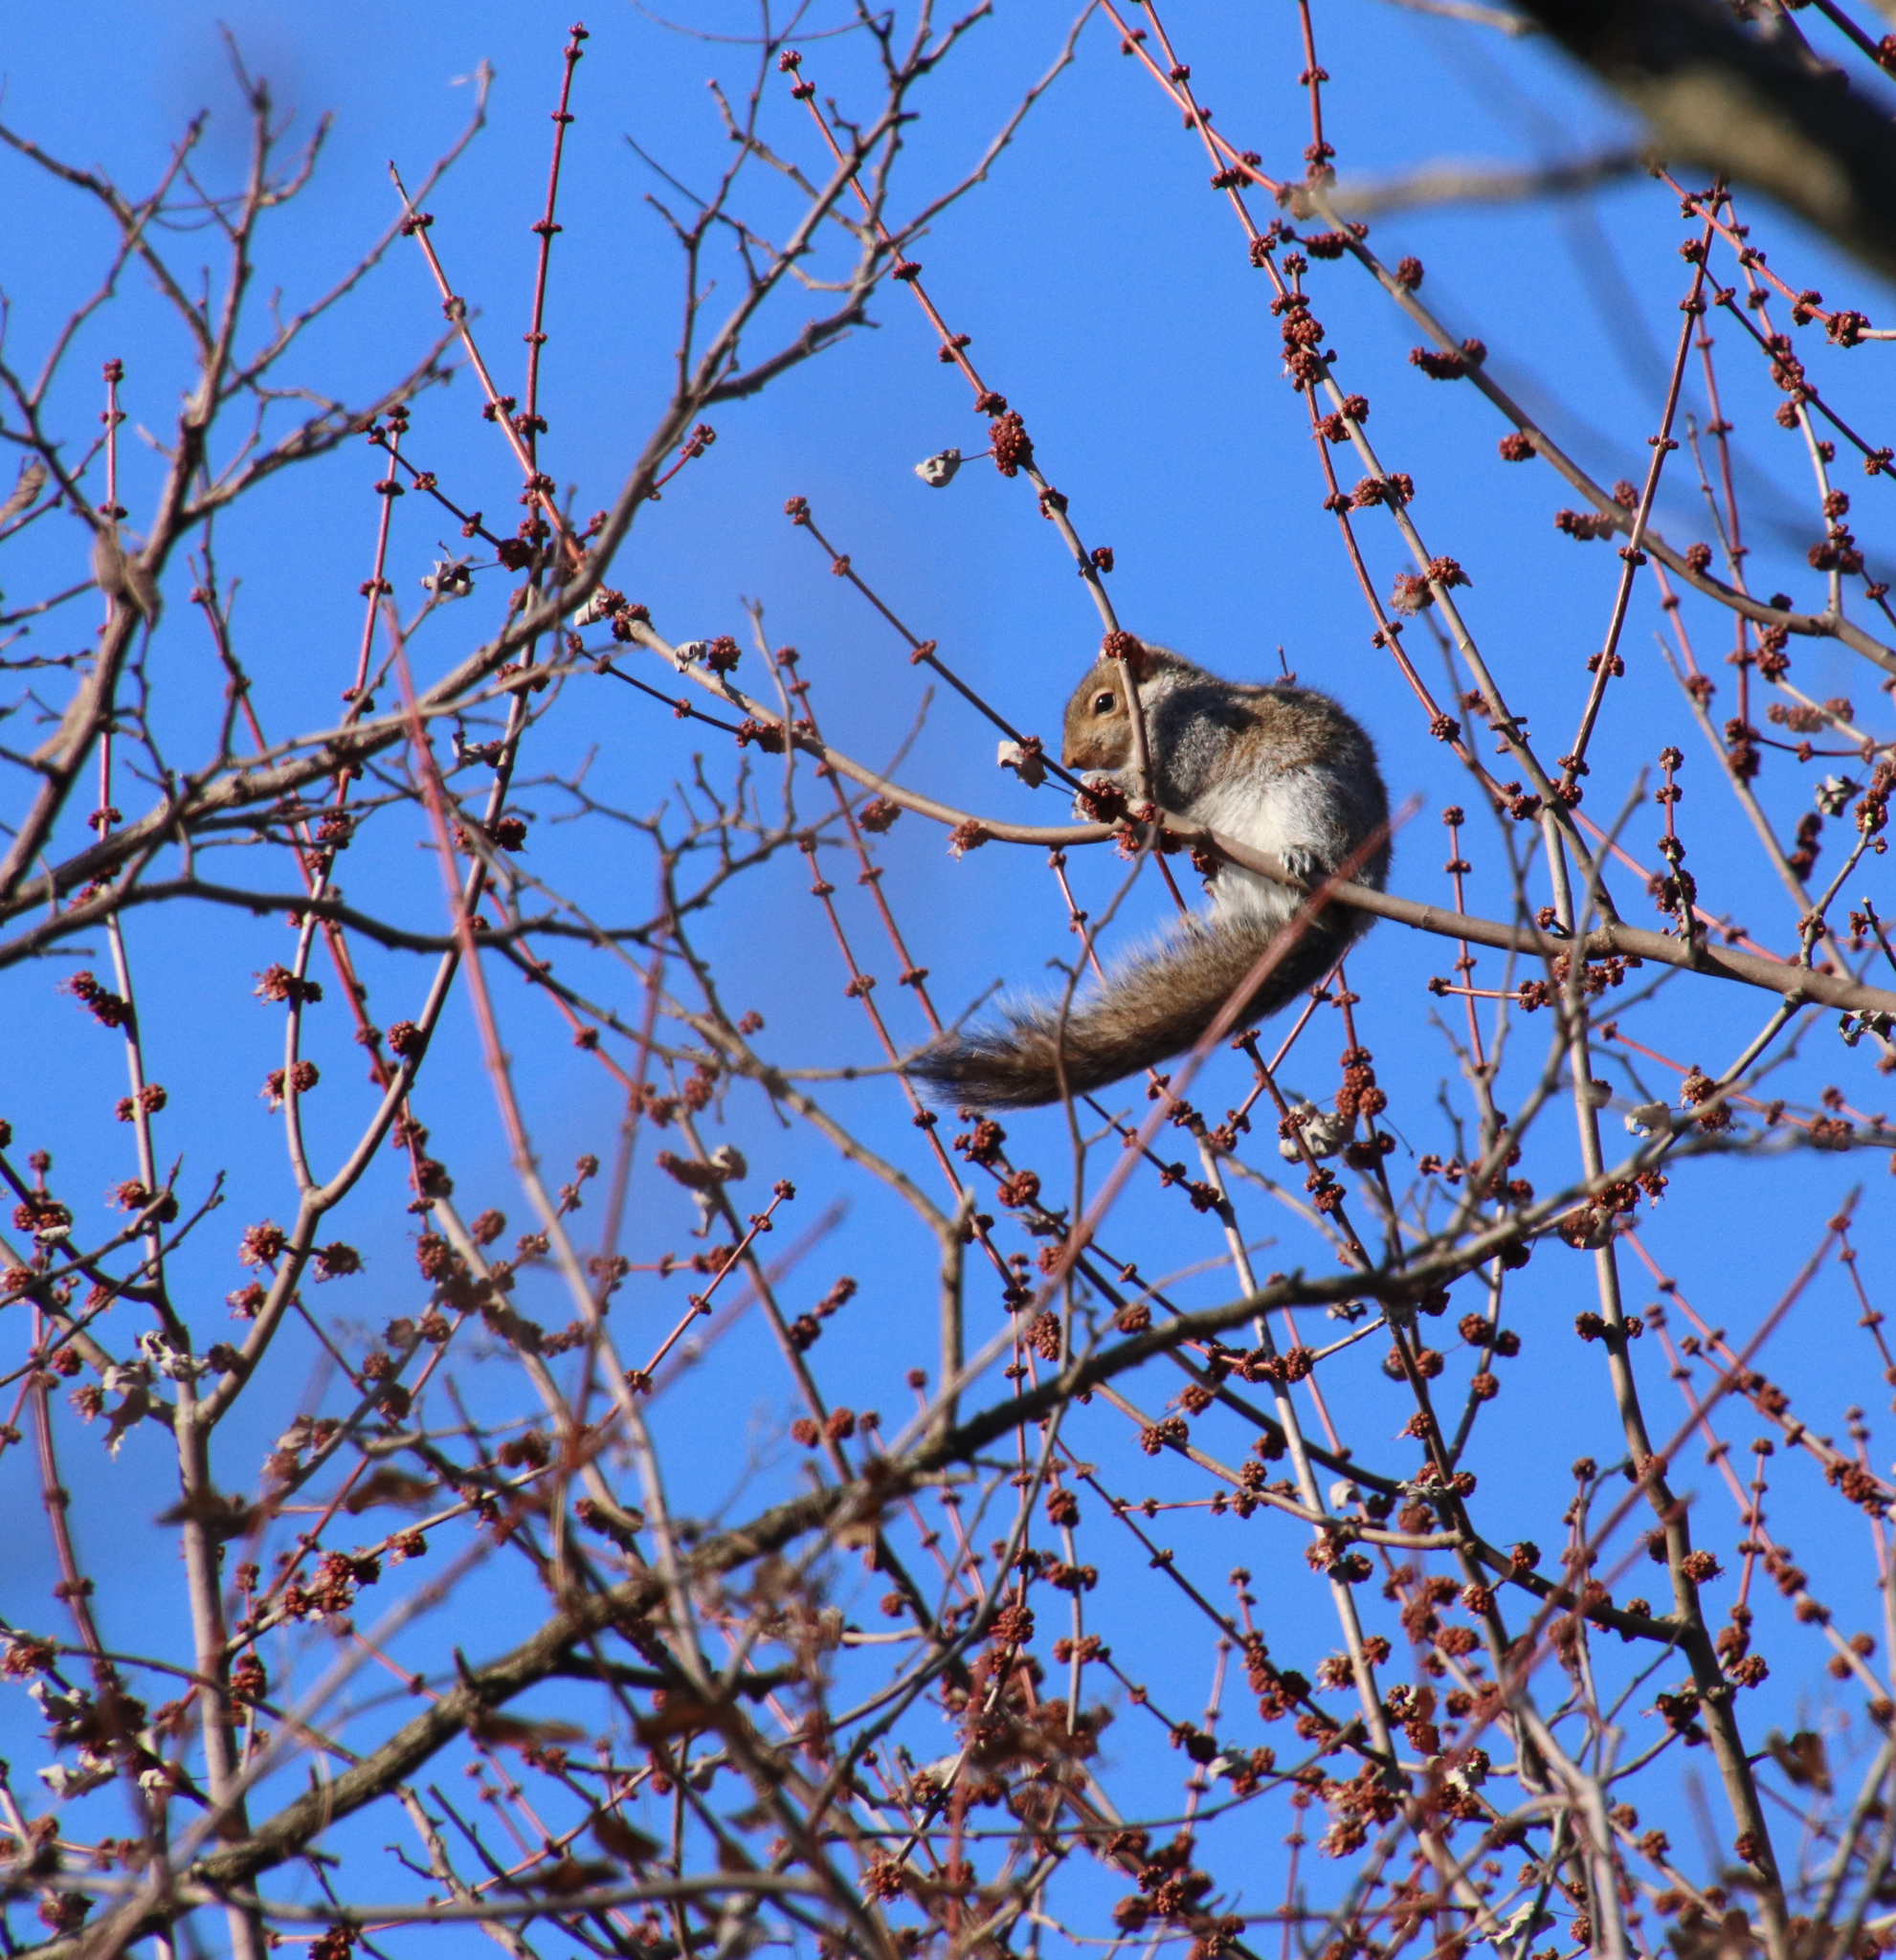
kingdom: Animalia
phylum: Chordata
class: Mammalia
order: Rodentia
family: Sciuridae
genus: Sciurus
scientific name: Sciurus carolinensis
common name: Eastern gray squirrel
